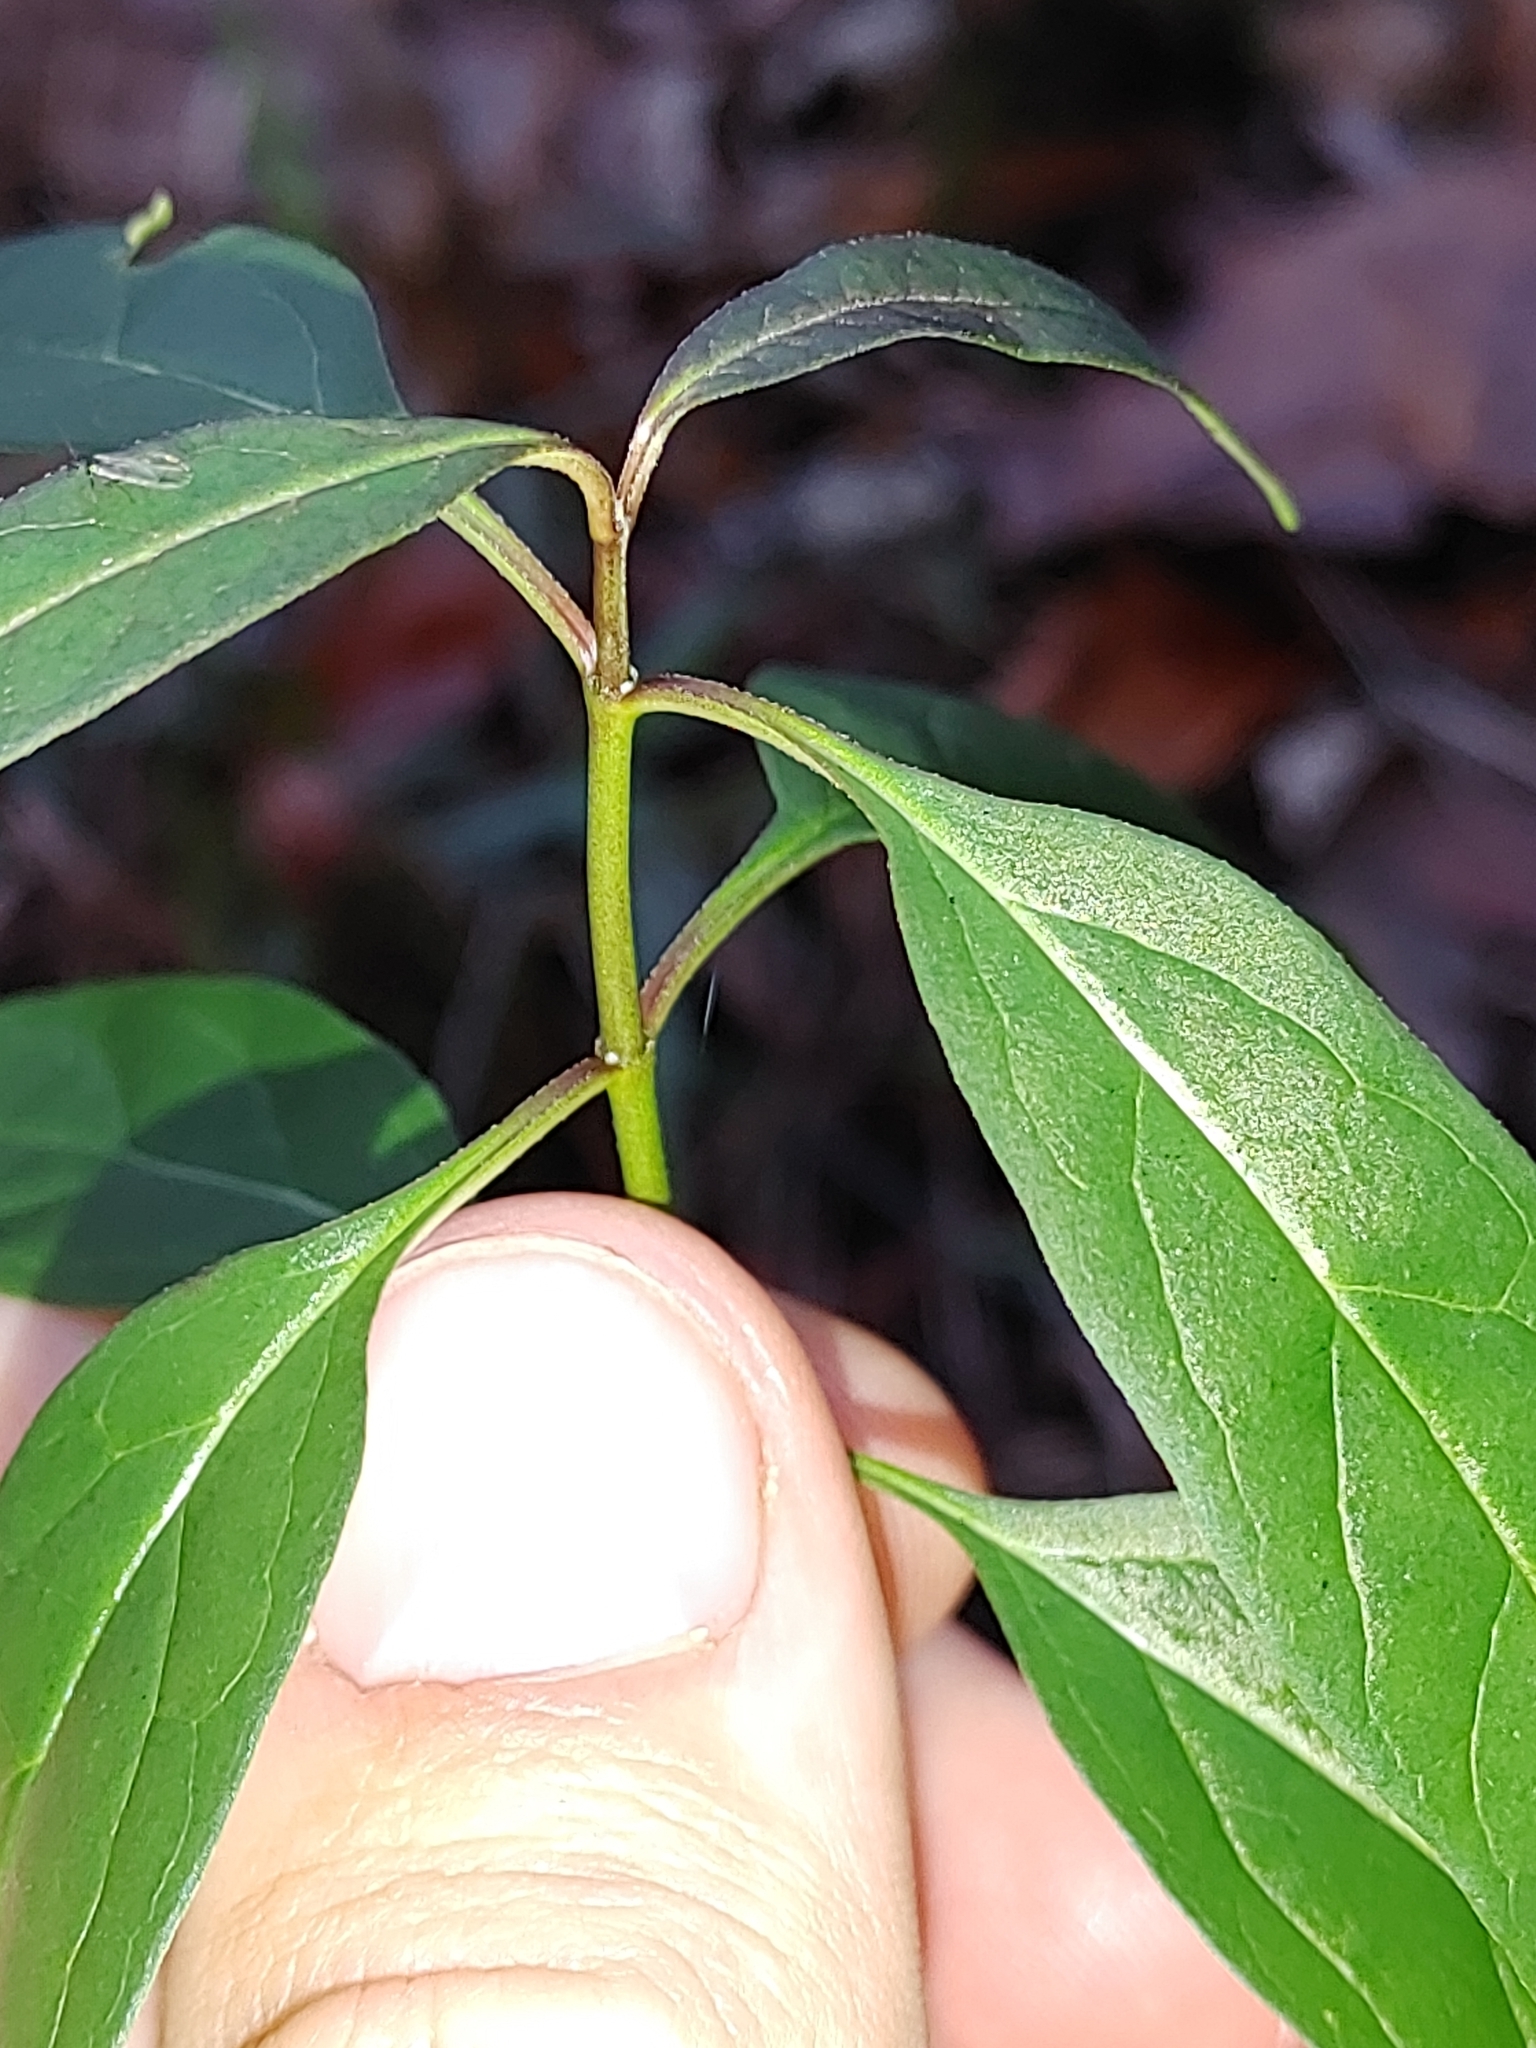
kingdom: Plantae
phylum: Tracheophyta
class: Magnoliopsida
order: Gentianales
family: Apocynaceae
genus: Asclepias
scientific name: Asclepias perennis
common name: Smooth-seed milkweed
